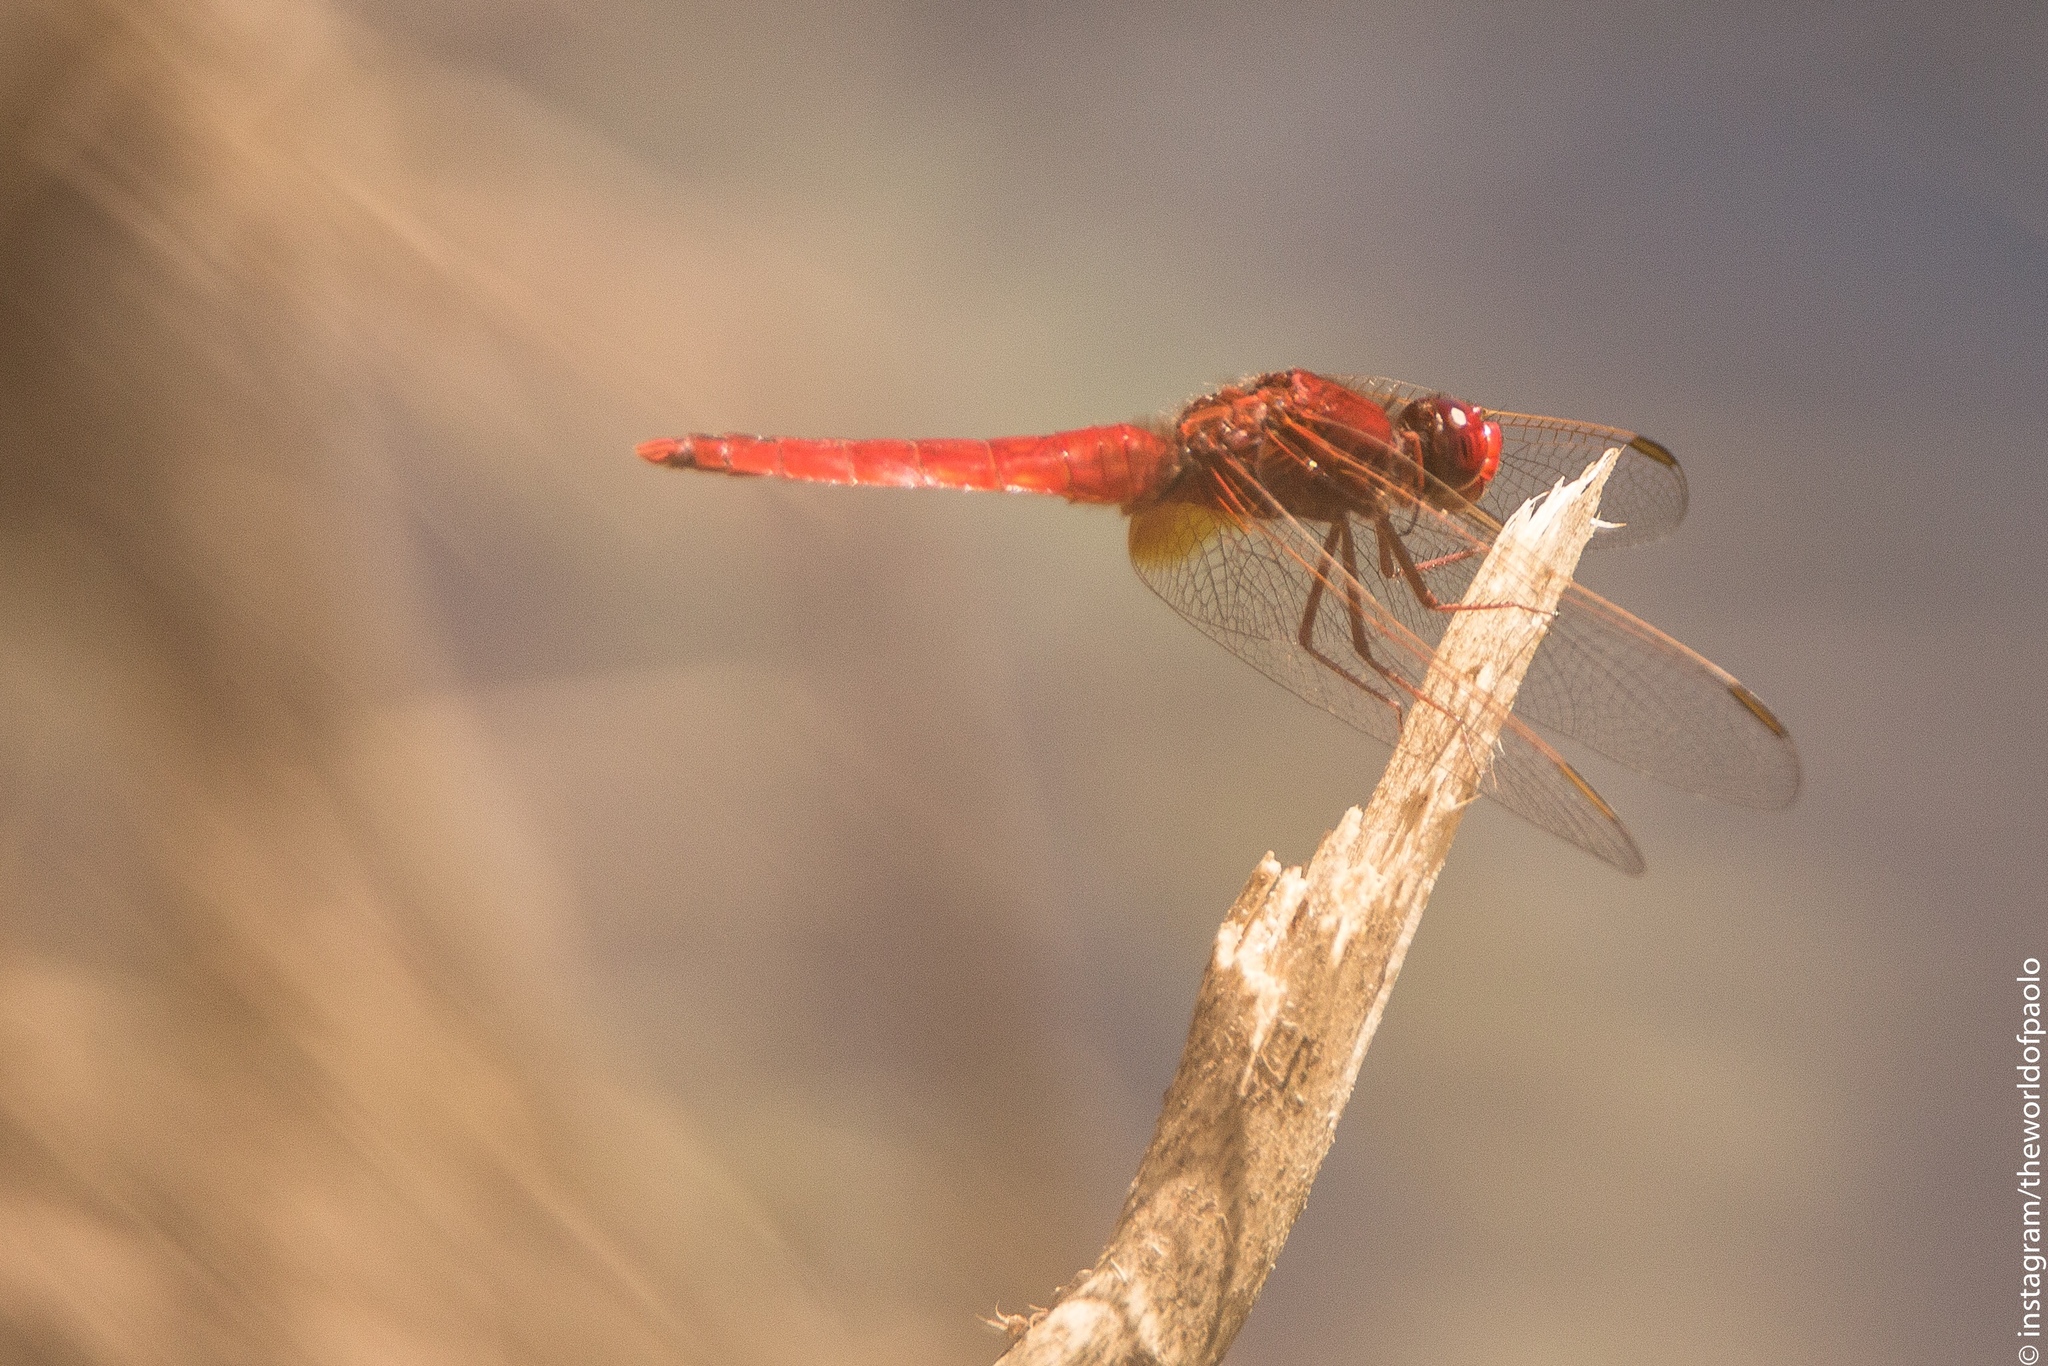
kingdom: Animalia
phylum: Arthropoda
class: Insecta
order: Odonata
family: Libellulidae
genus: Crocothemis
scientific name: Crocothemis erythraea
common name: Scarlet dragonfly
